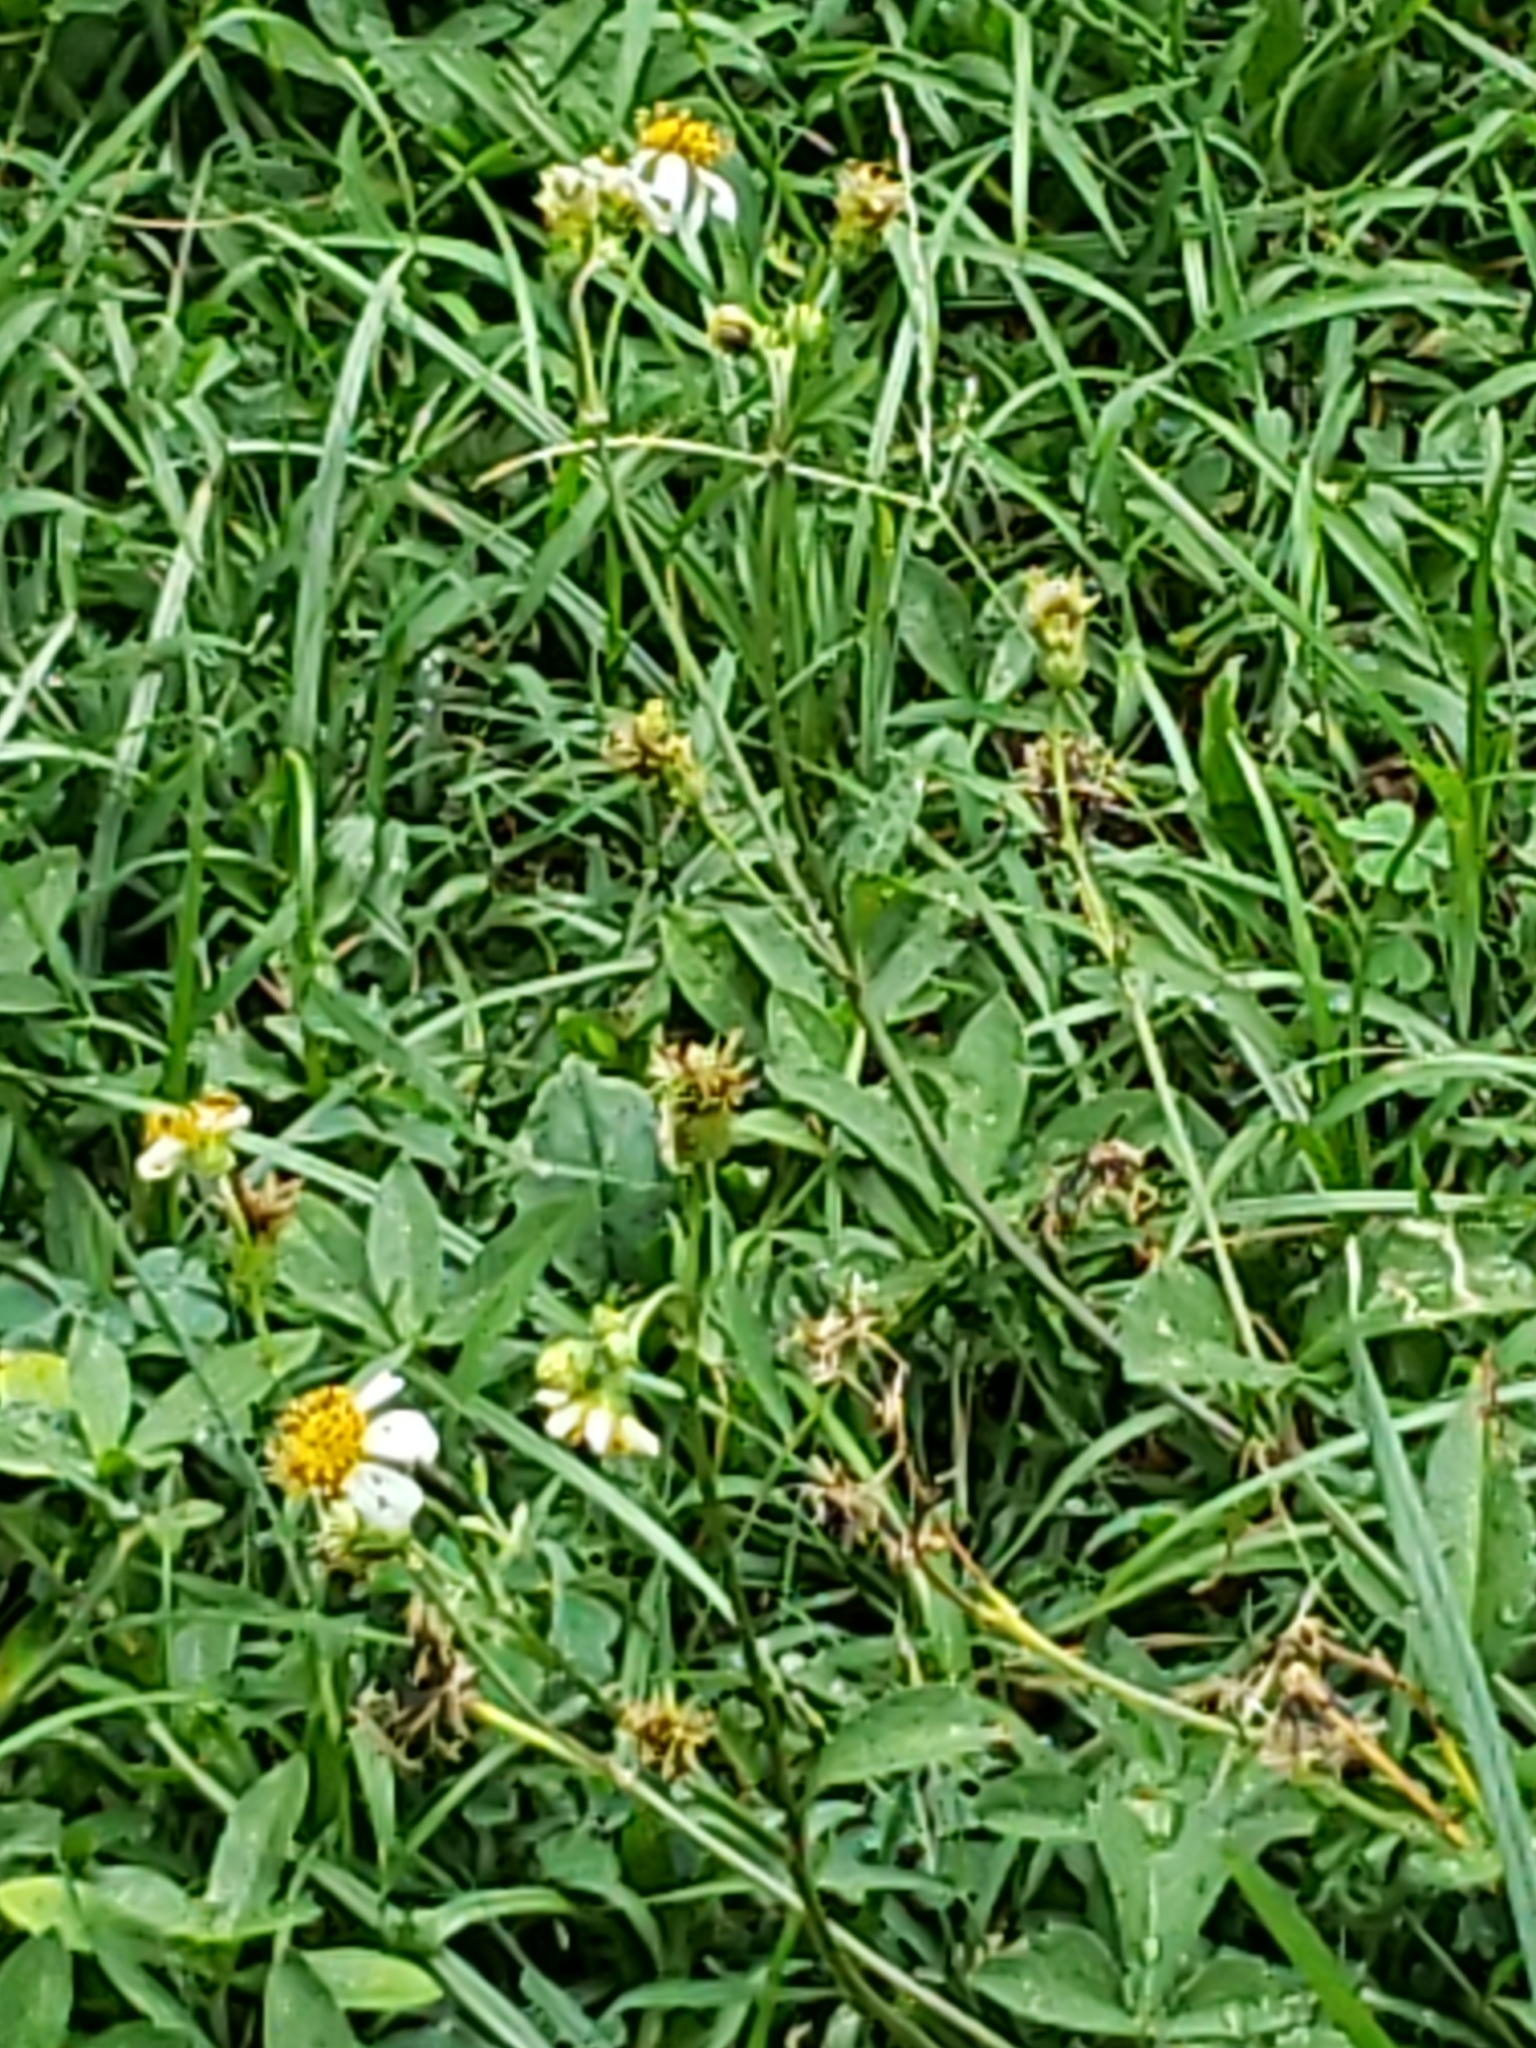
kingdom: Plantae
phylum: Tracheophyta
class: Magnoliopsida
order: Asterales
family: Asteraceae
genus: Bidens
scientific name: Bidens alba
